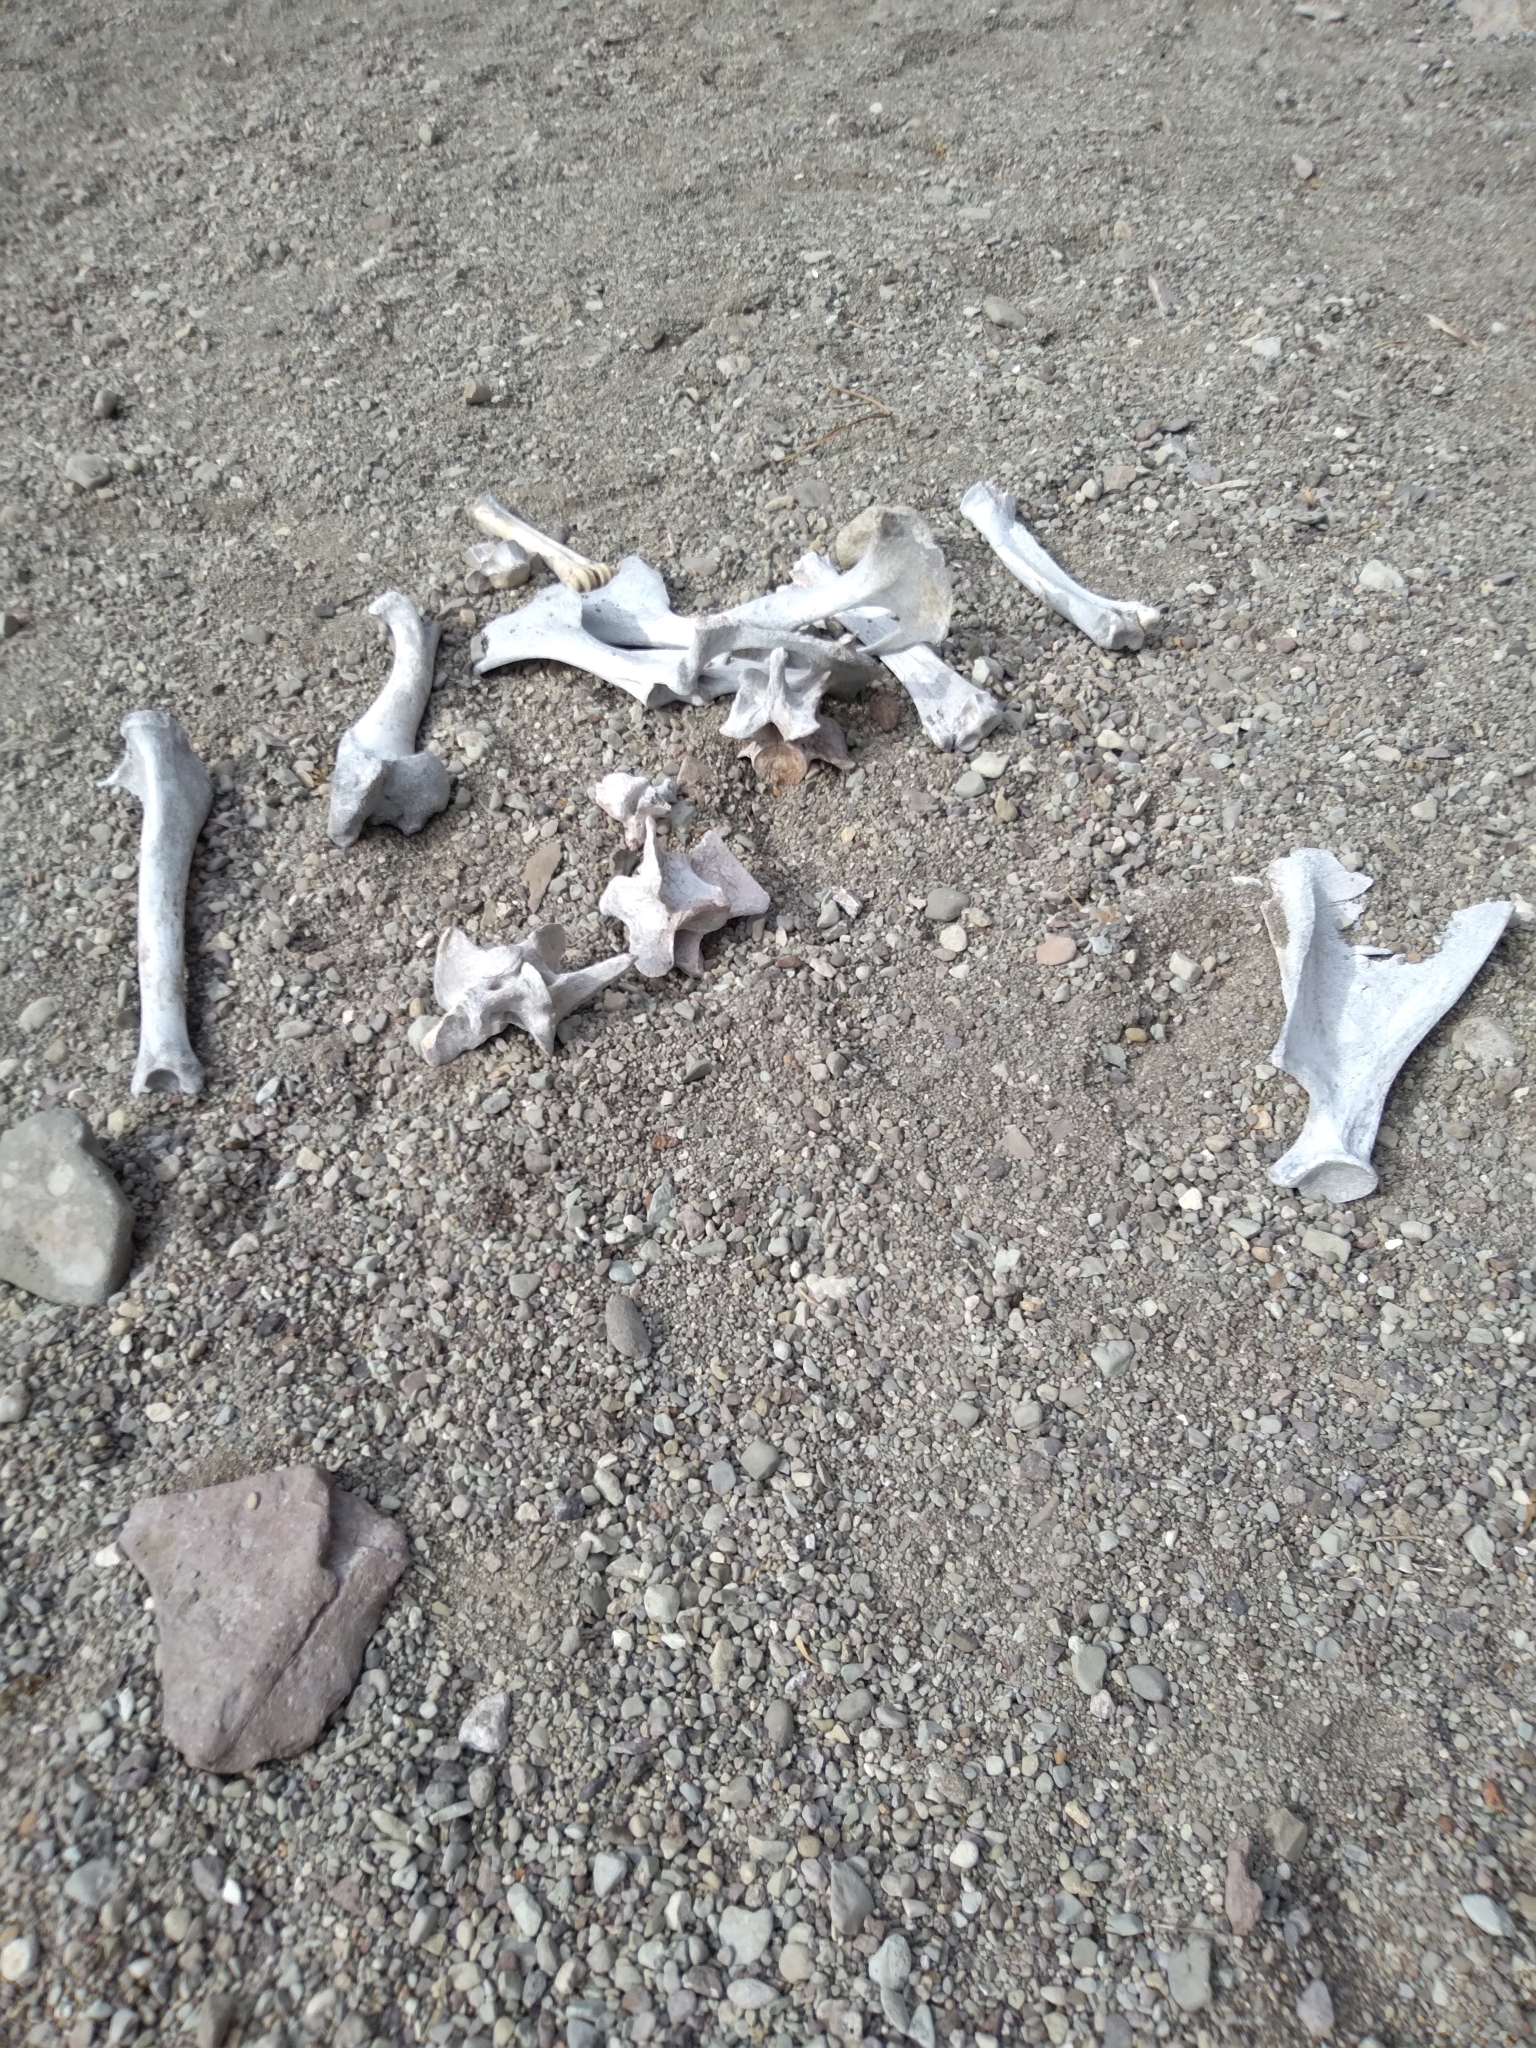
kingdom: Animalia
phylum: Chordata
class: Mammalia
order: Artiodactyla
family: Cervidae
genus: Odocoileus
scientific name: Odocoileus
